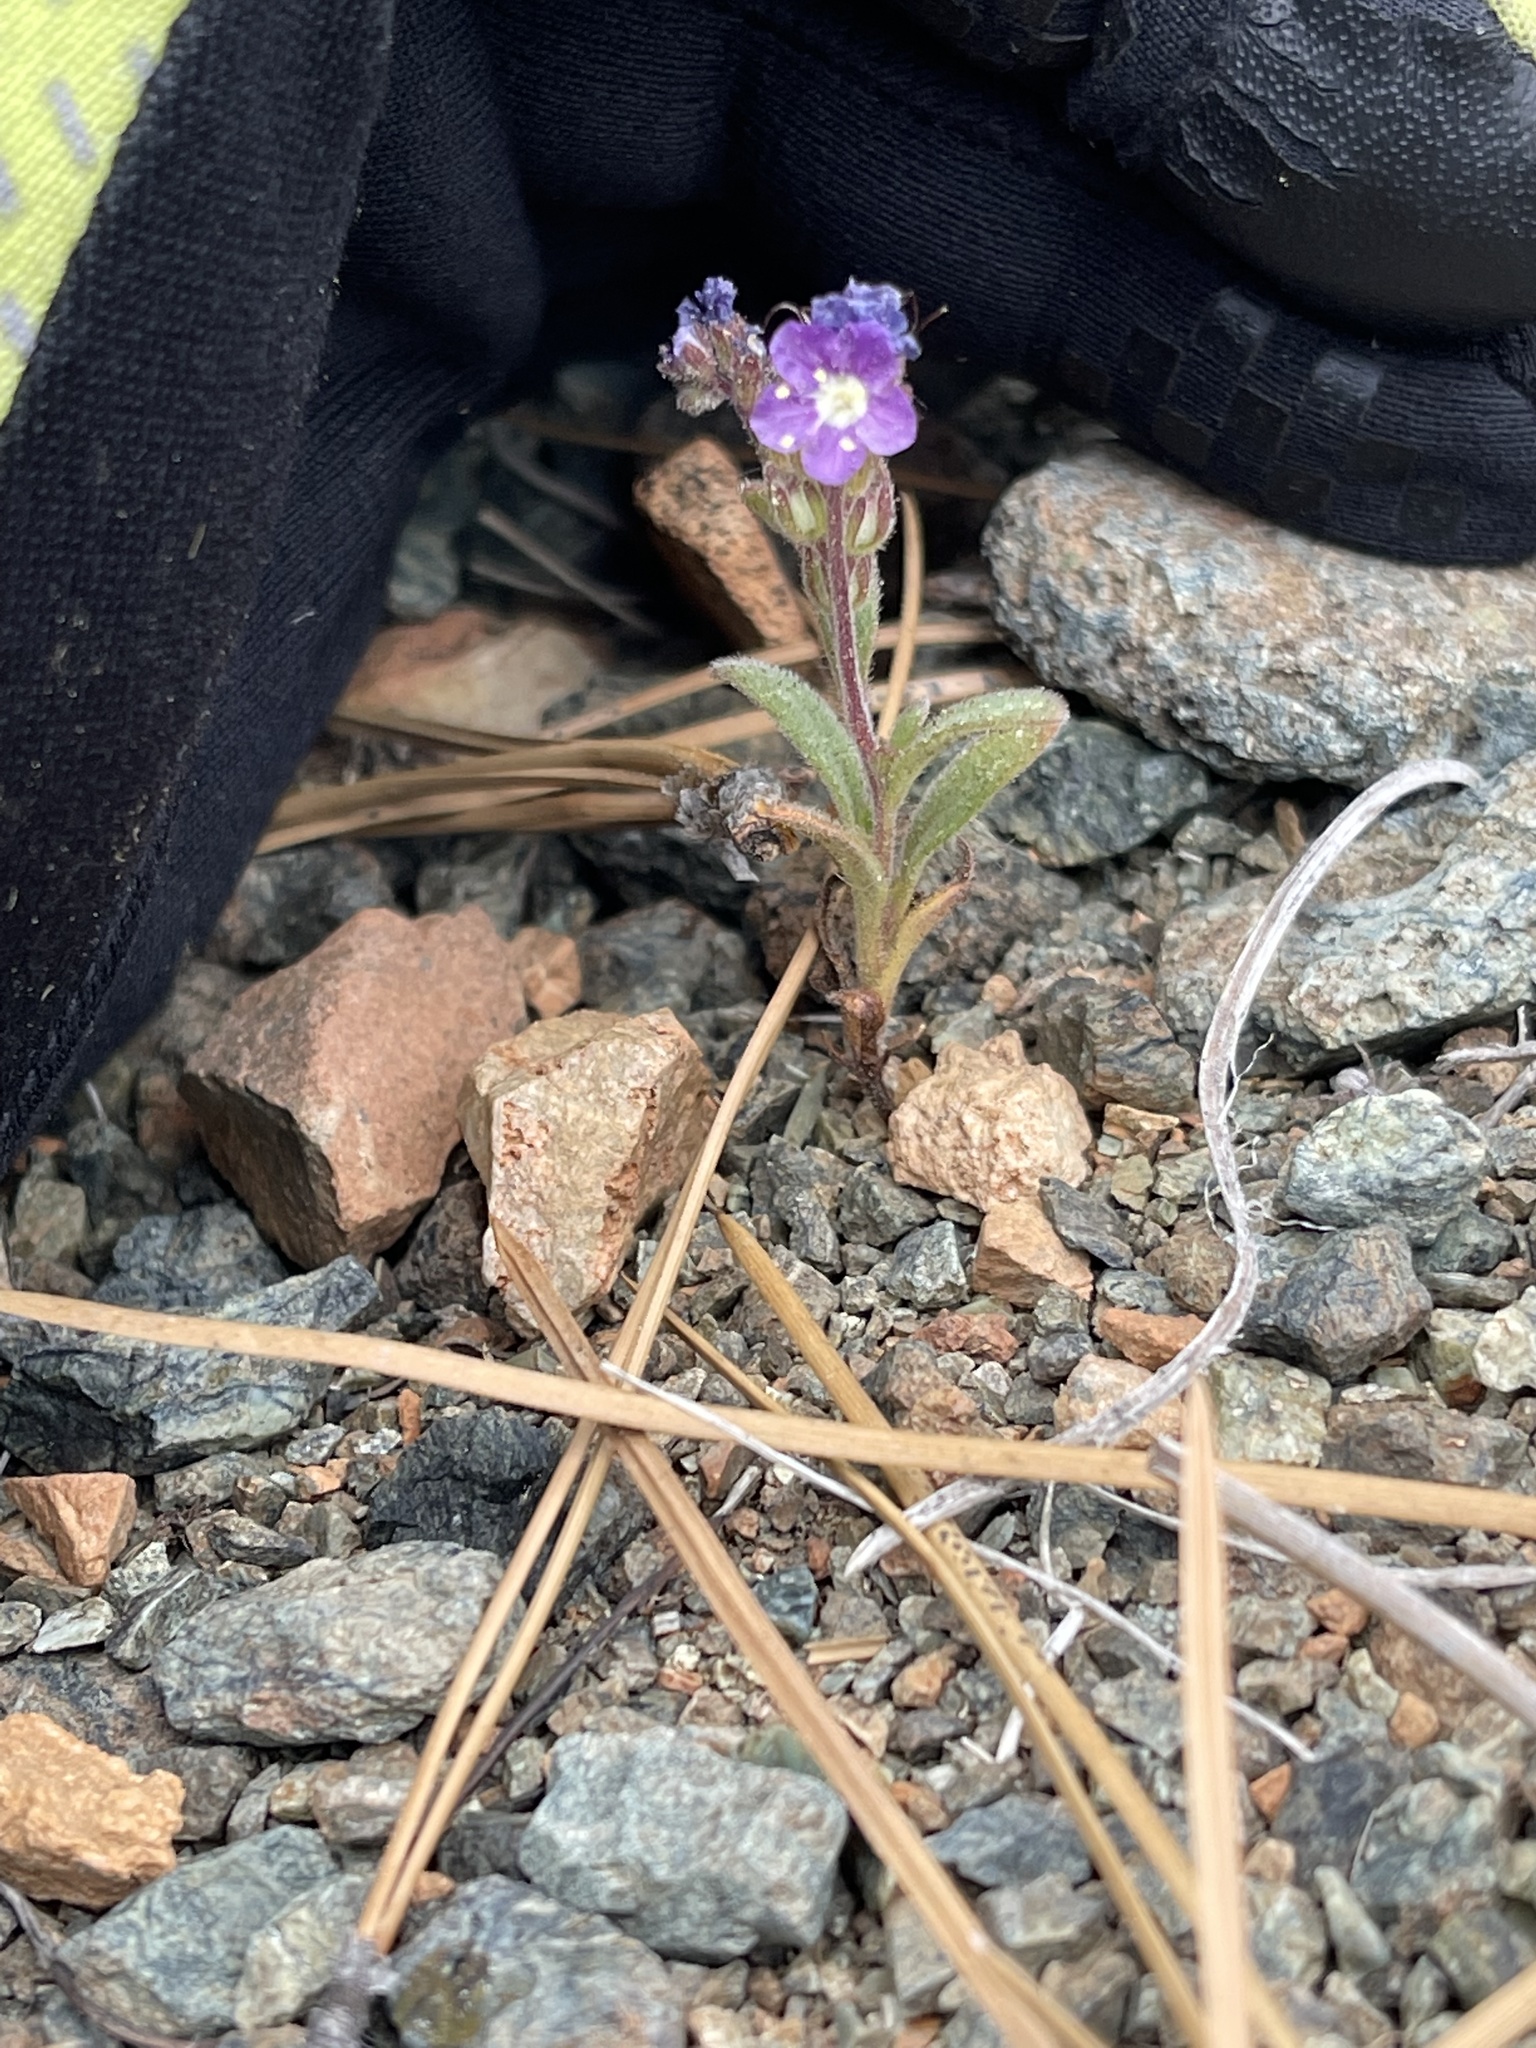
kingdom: Plantae
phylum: Tracheophyta
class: Magnoliopsida
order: Boraginales
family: Hydrophyllaceae
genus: Phacelia
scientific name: Phacelia greenei
